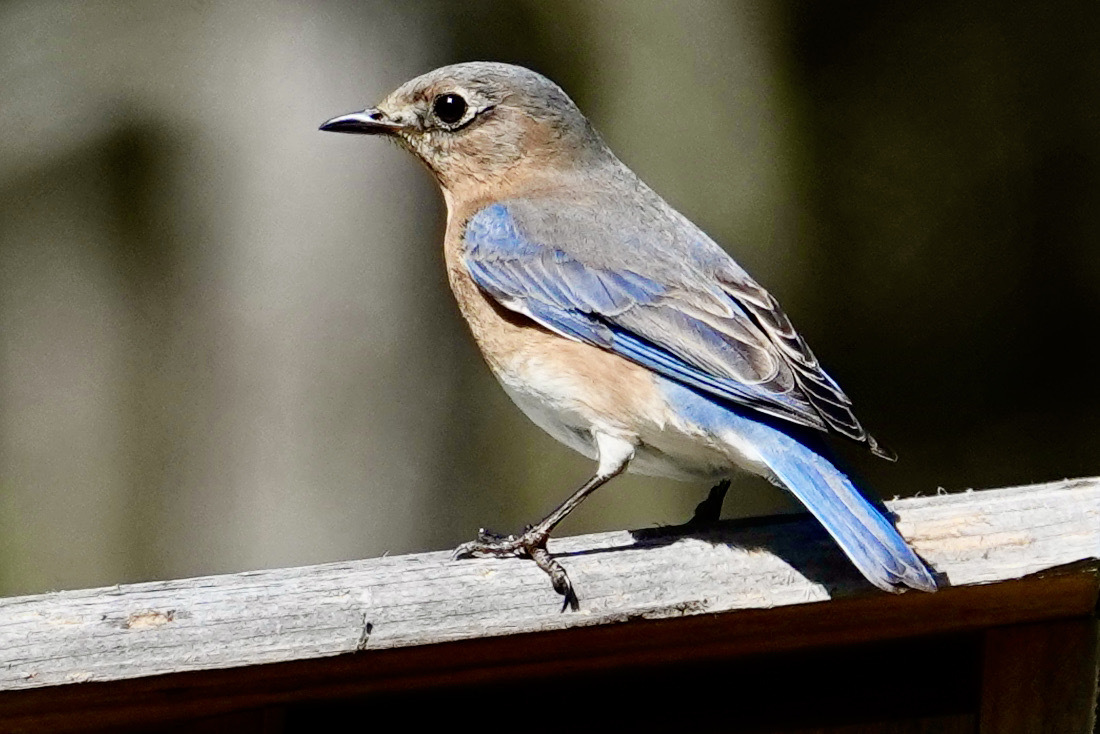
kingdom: Animalia
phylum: Chordata
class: Aves
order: Passeriformes
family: Turdidae
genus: Sialia
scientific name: Sialia sialis
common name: Eastern bluebird
